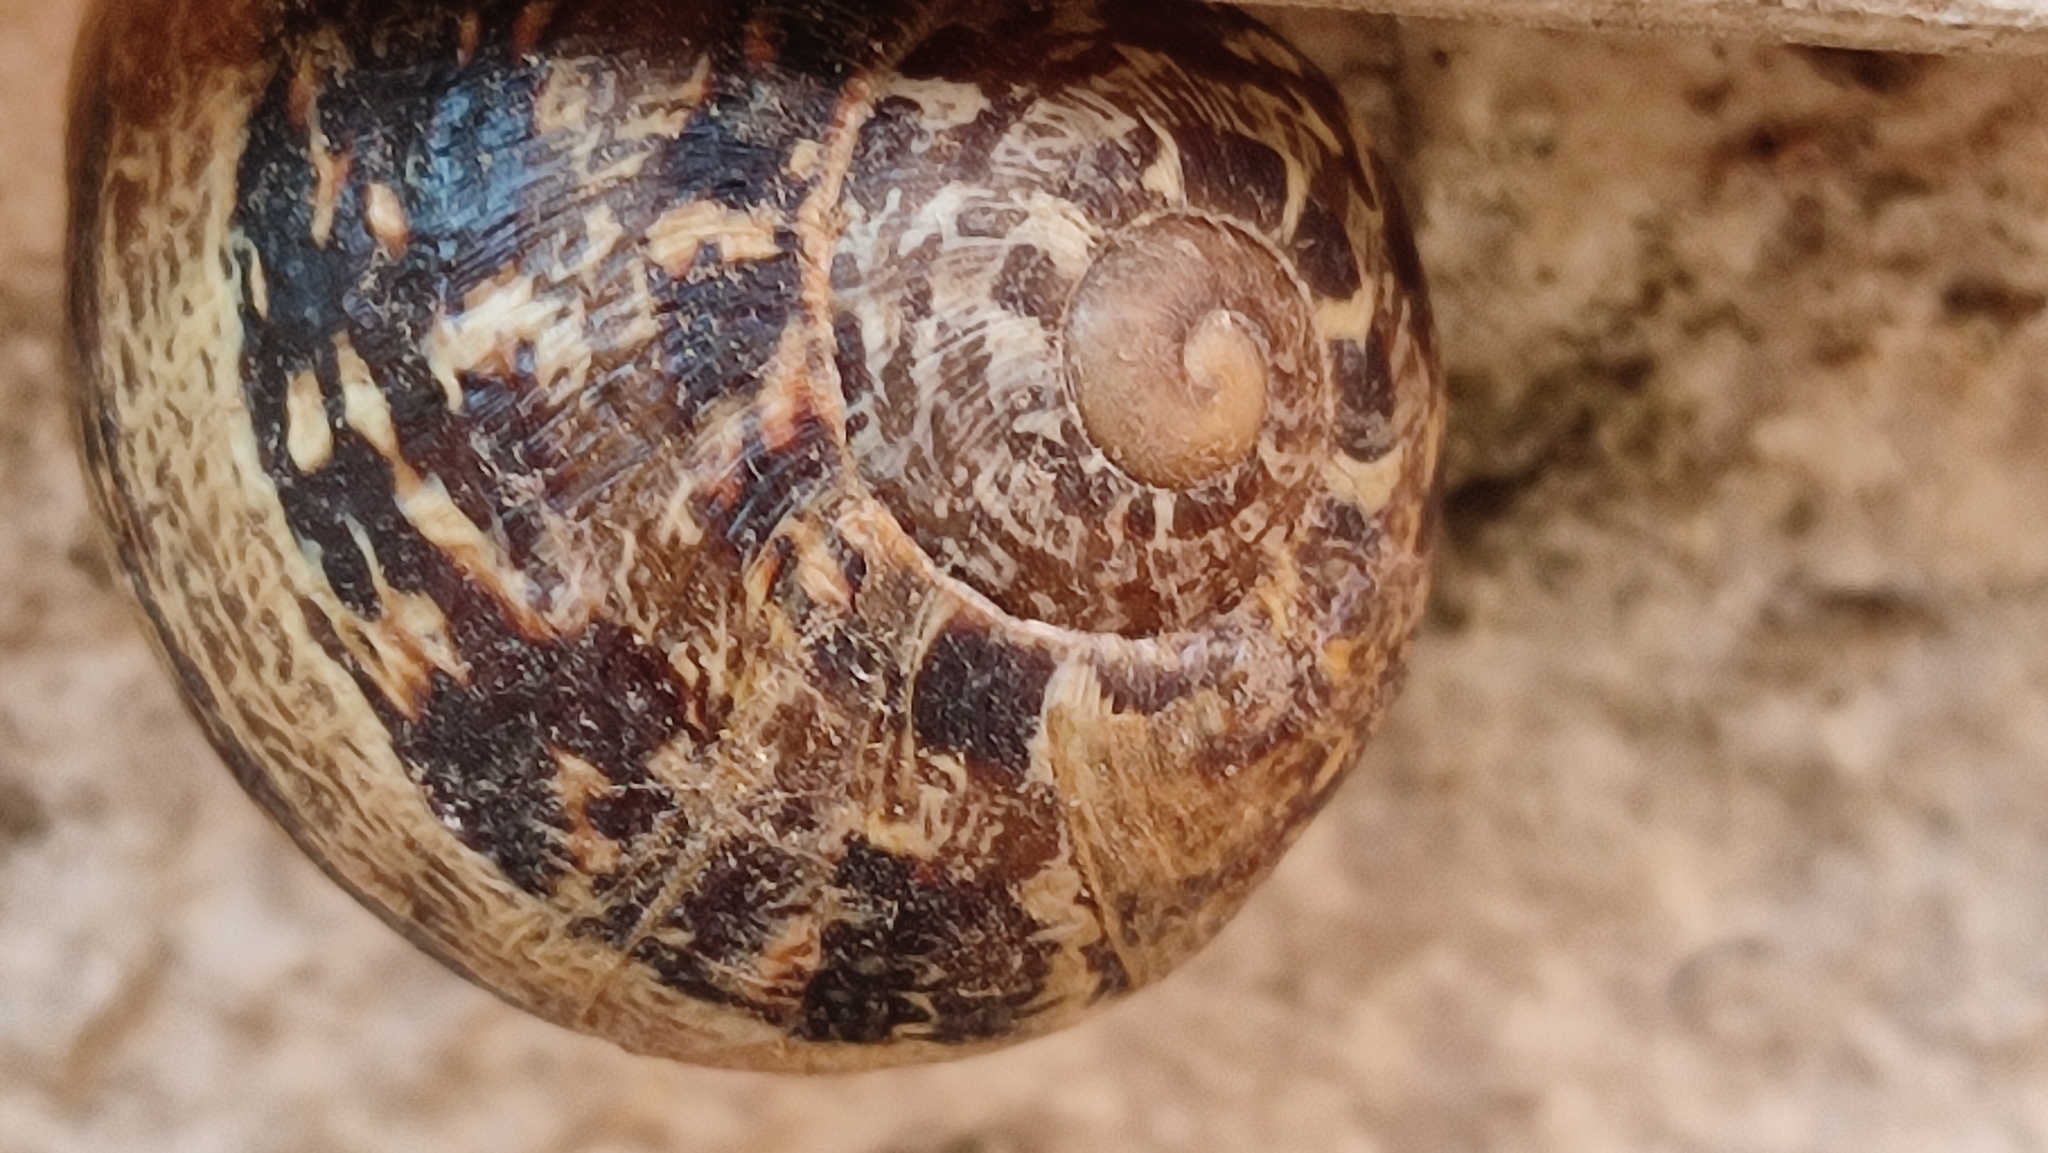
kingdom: Animalia
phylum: Mollusca
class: Gastropoda
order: Stylommatophora
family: Helicidae
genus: Cornu
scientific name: Cornu aspersum
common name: Brown garden snail
